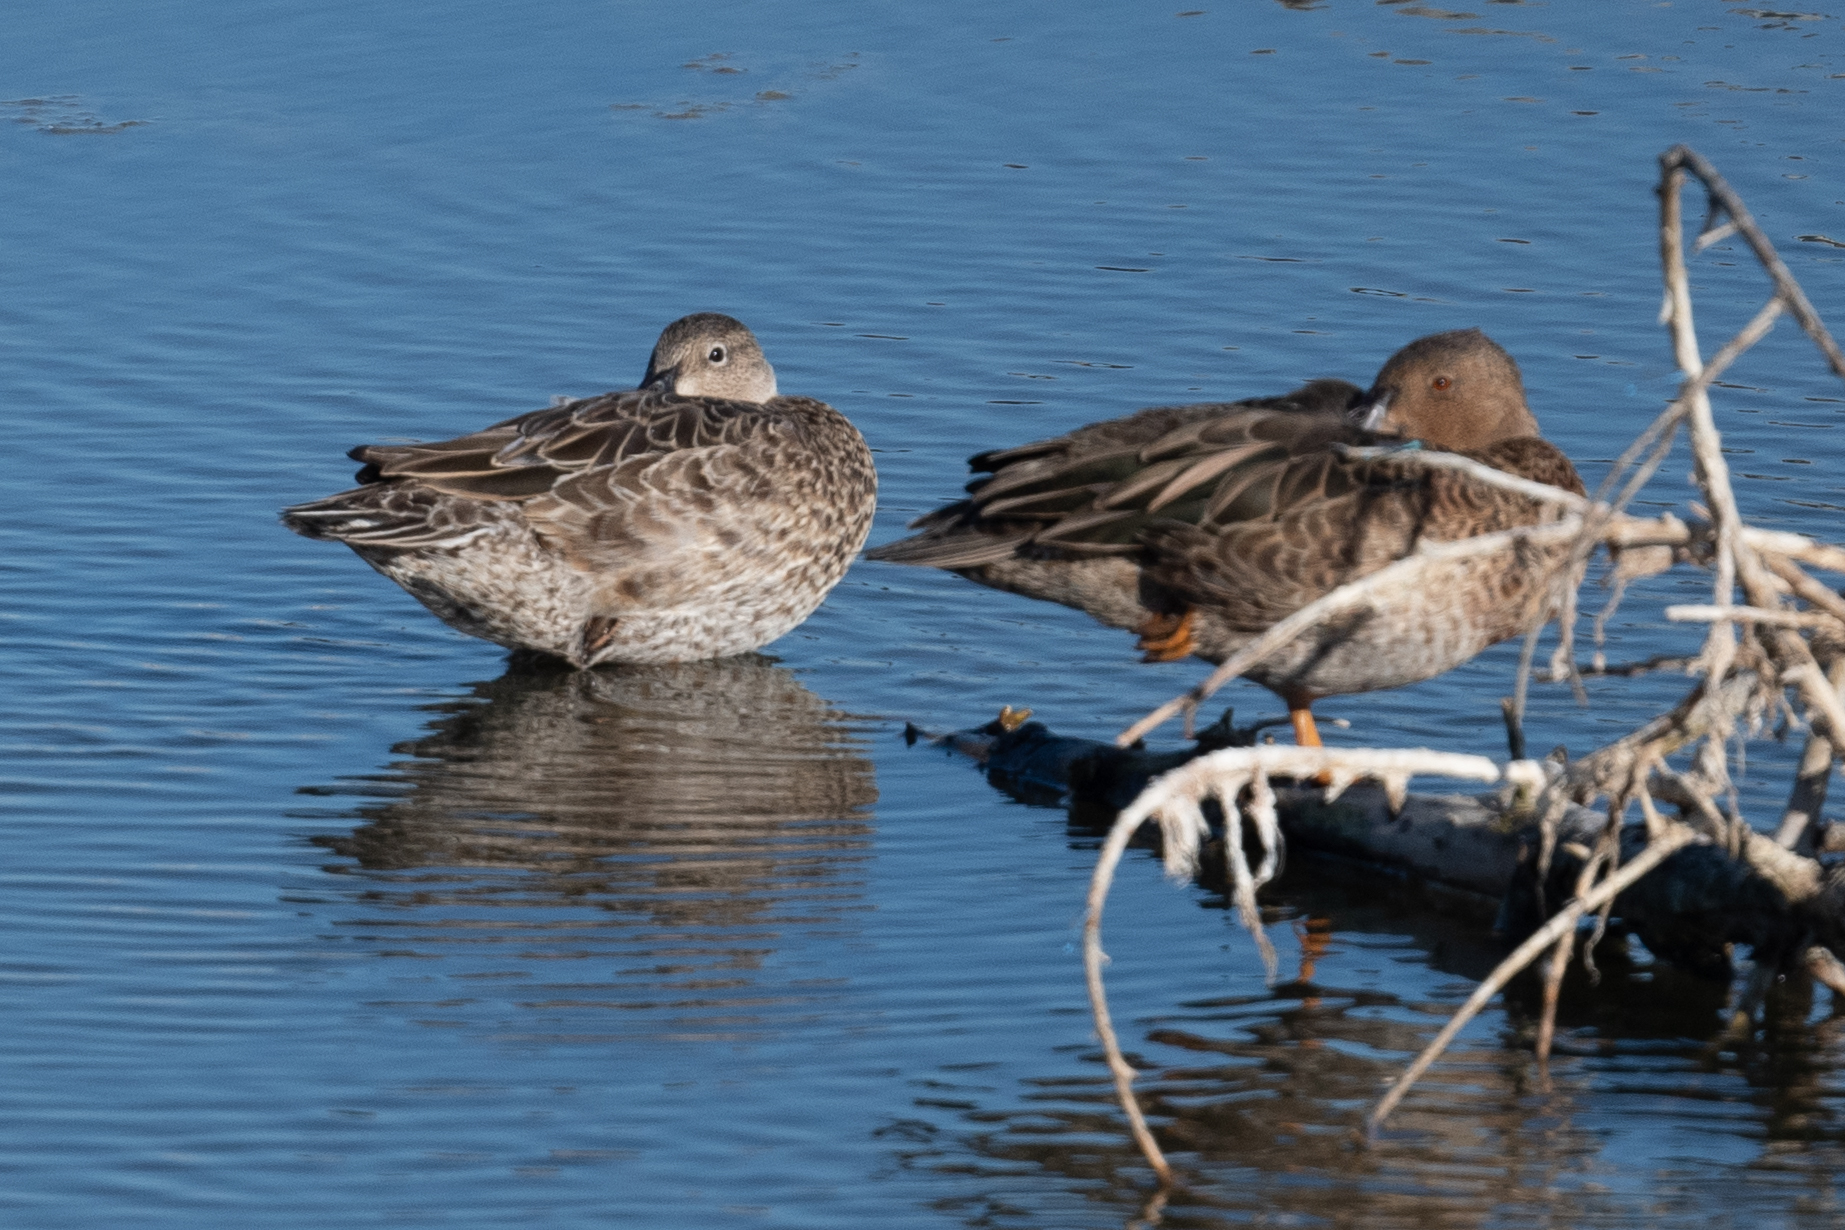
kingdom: Animalia
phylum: Chordata
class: Aves
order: Anseriformes
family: Anatidae
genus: Spatula
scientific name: Spatula cyanoptera
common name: Cinnamon teal
